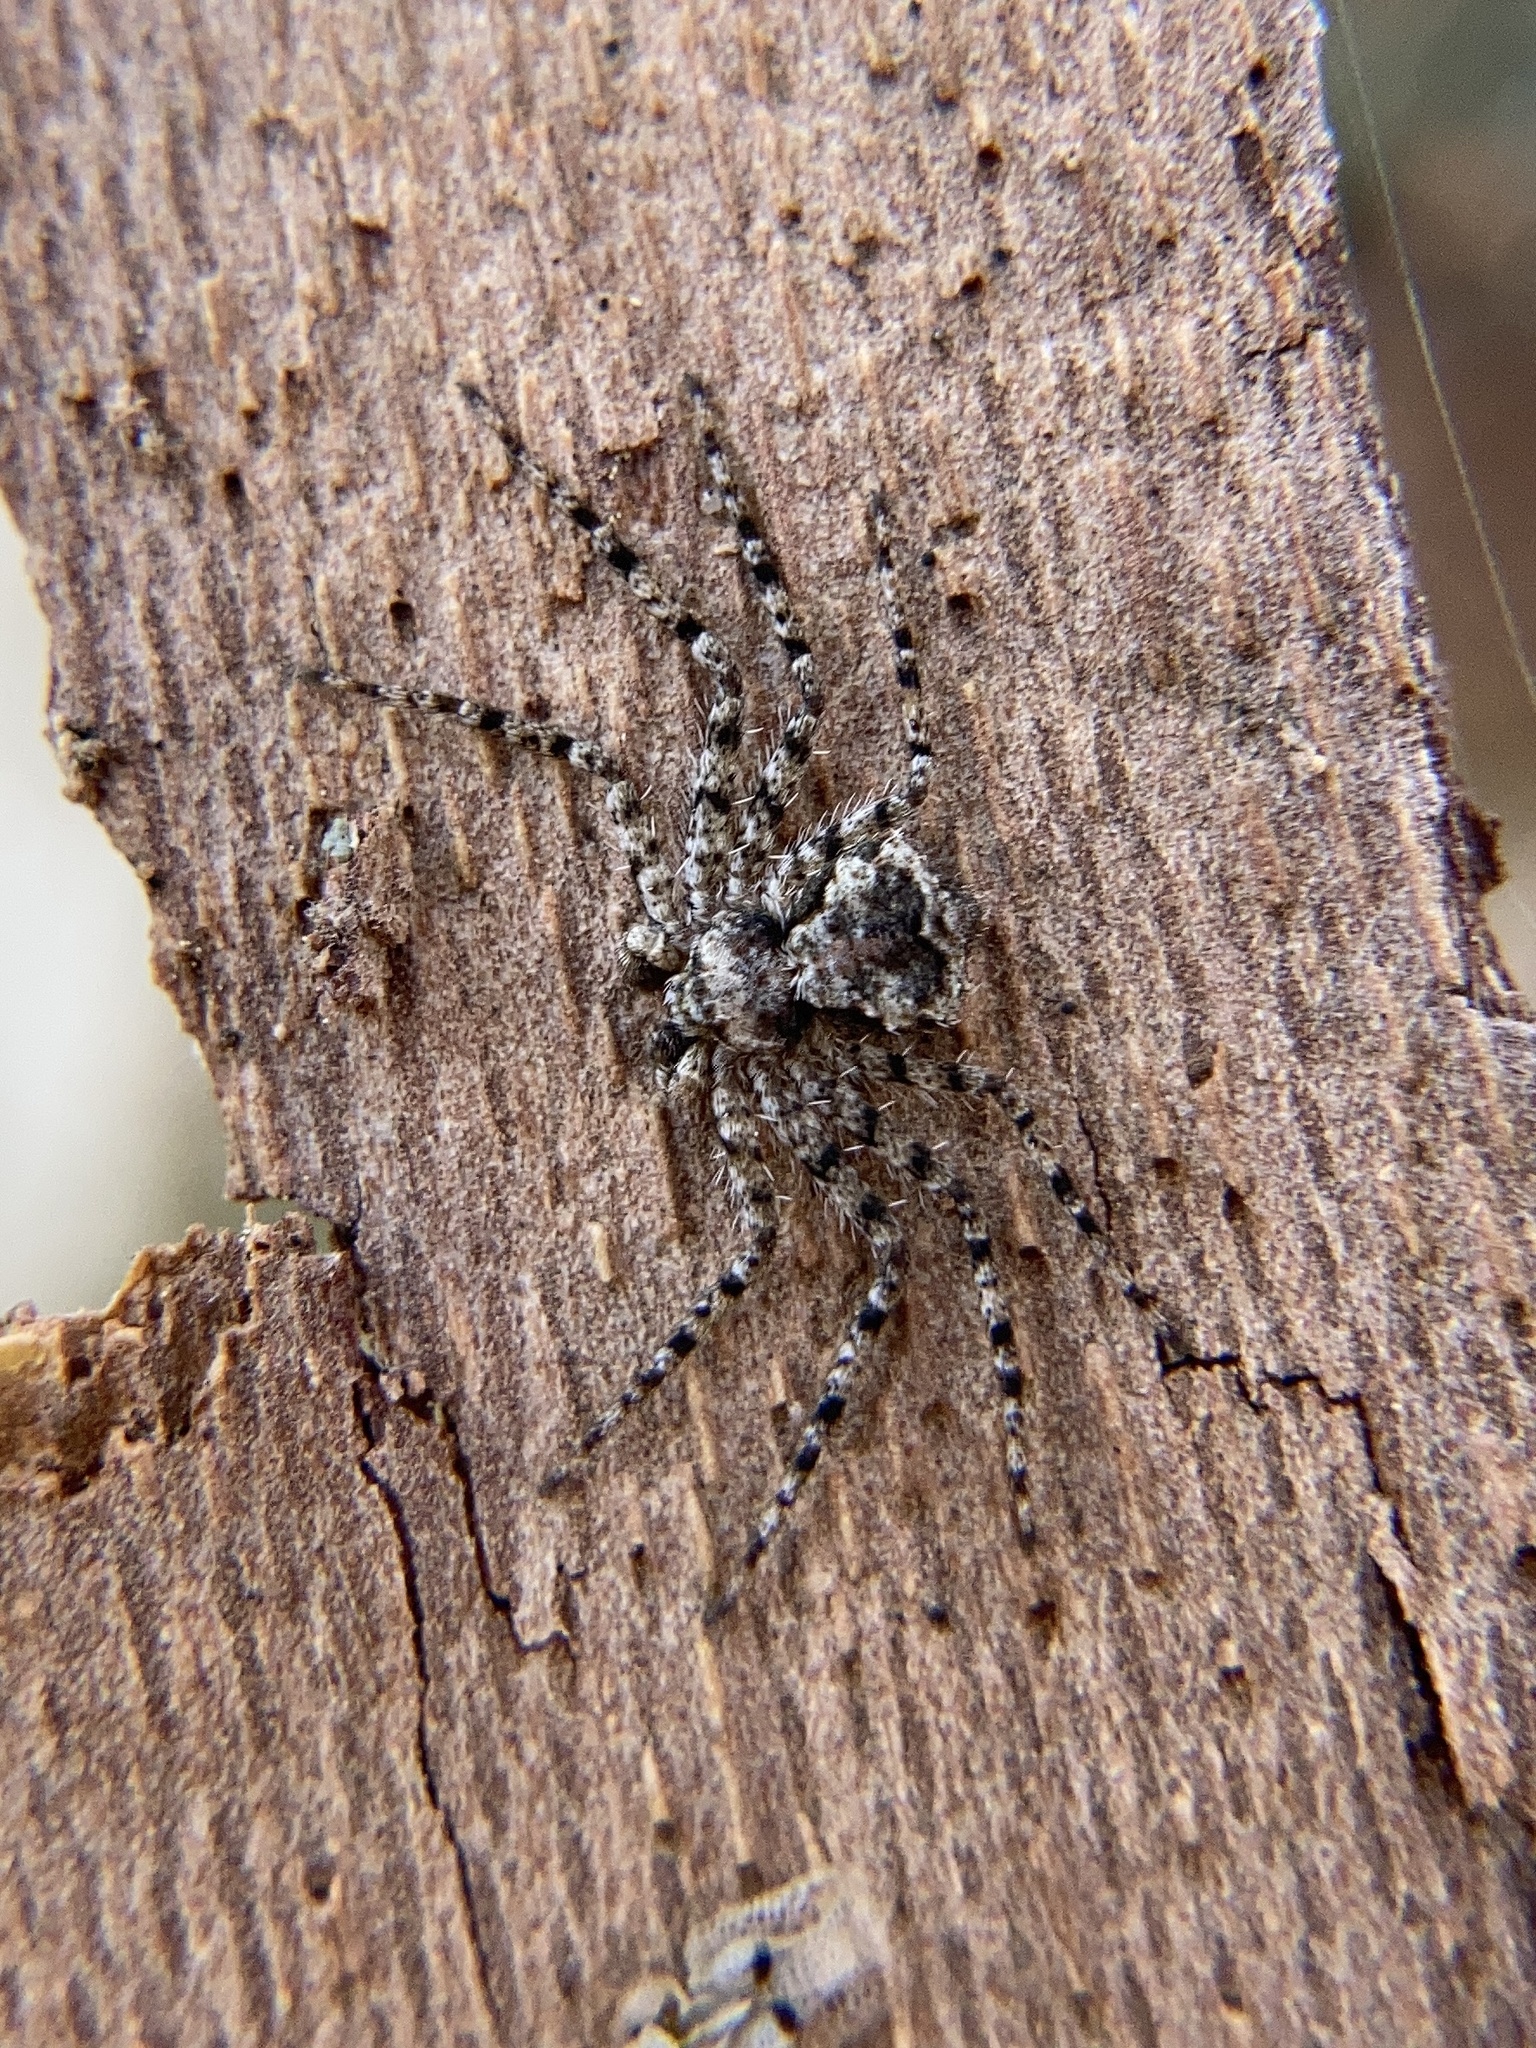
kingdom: Animalia
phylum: Arthropoda
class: Arachnida
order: Araneae
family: Philodromidae
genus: Philodromus
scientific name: Philodromus margaritatus
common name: Lichen running-spider
